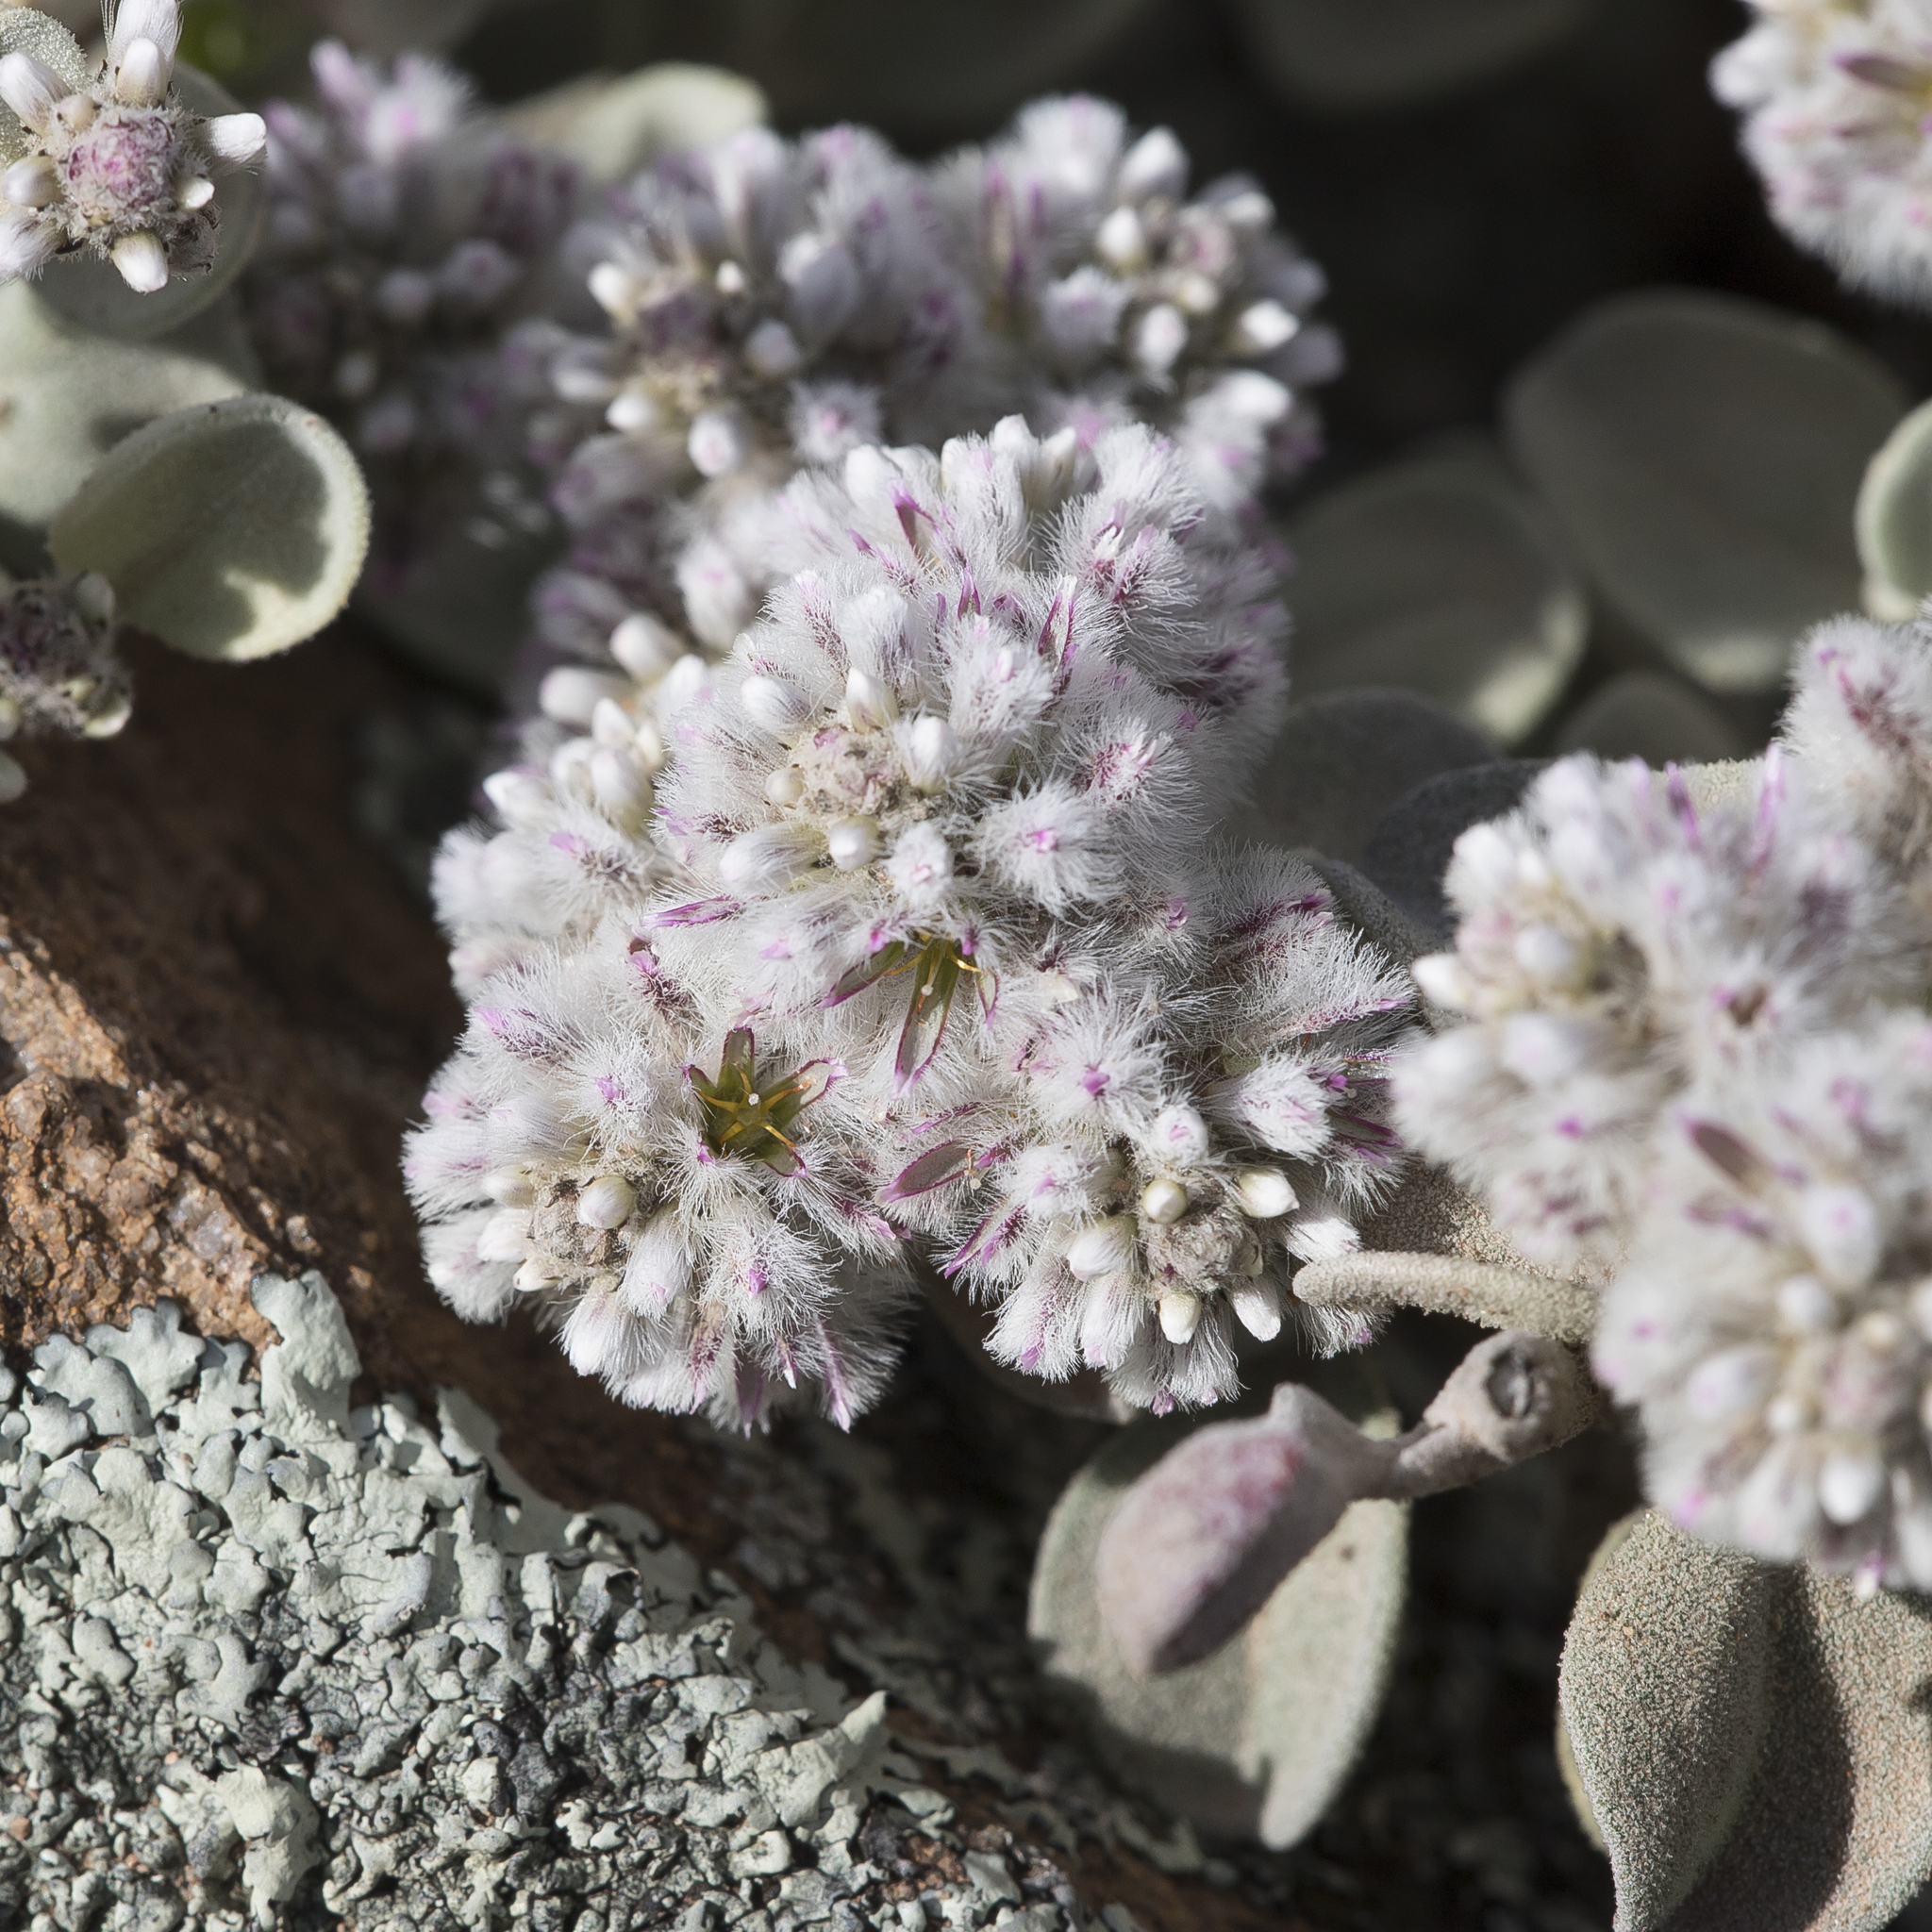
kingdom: Plantae
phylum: Tracheophyta
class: Magnoliopsida
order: Caryophyllales
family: Amaranthaceae
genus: Ptilotus
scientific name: Ptilotus obovatus
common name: Cottonbush
